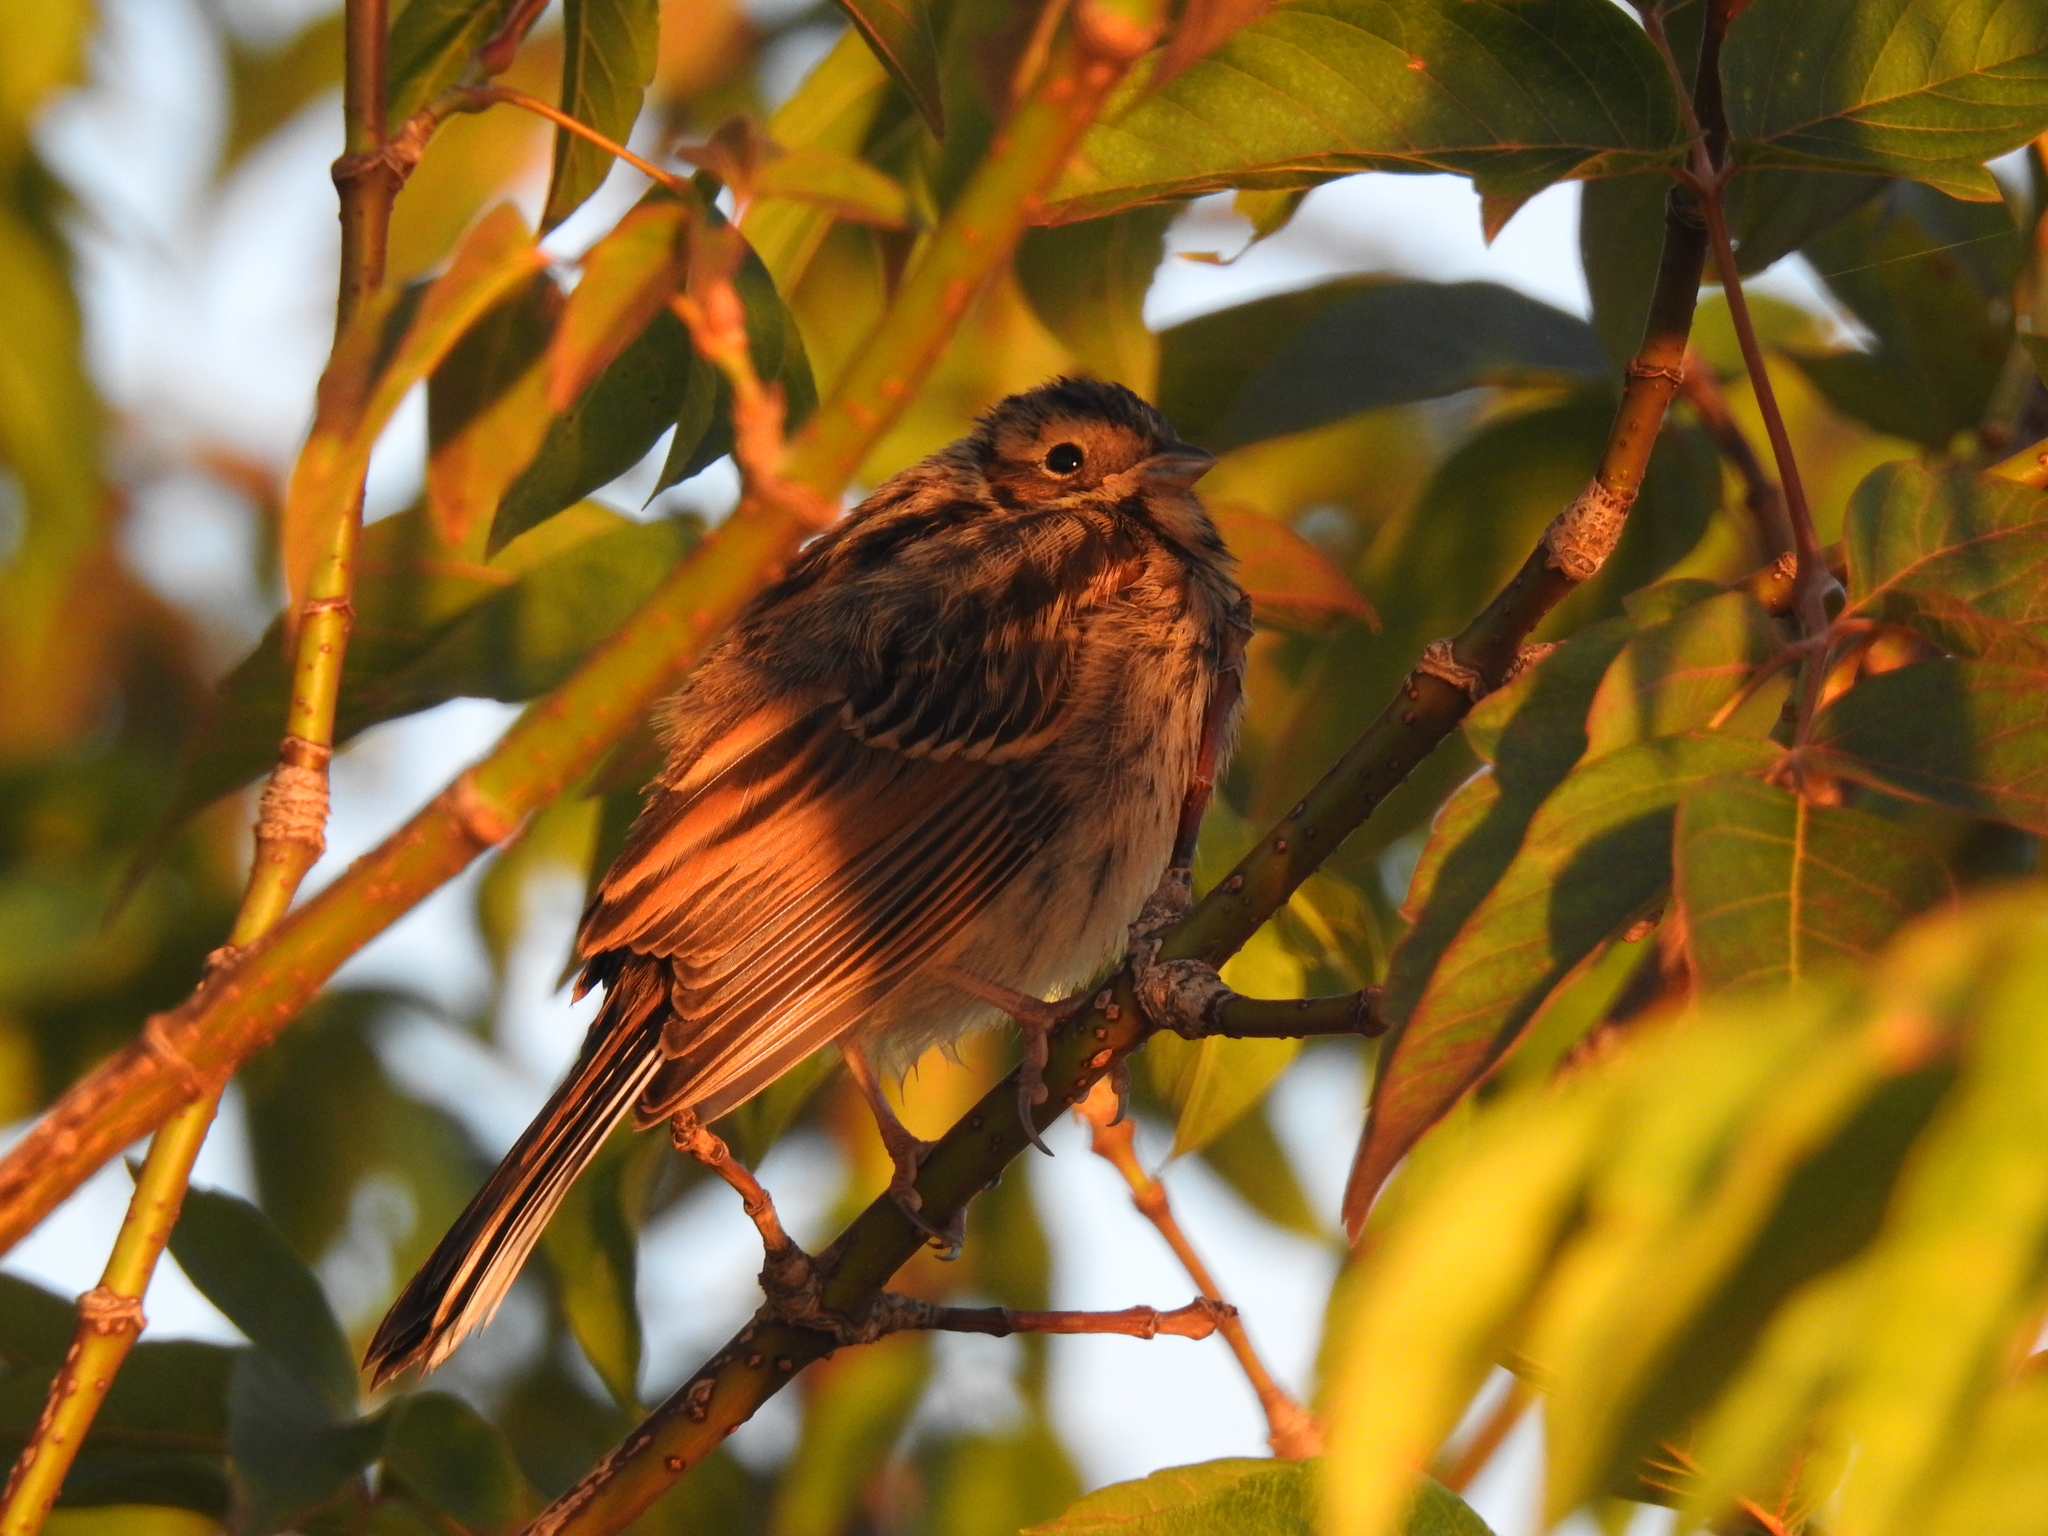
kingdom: Animalia
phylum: Chordata
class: Aves
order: Passeriformes
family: Emberizidae
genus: Emberiza
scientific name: Emberiza schoeniclus
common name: Reed bunting
